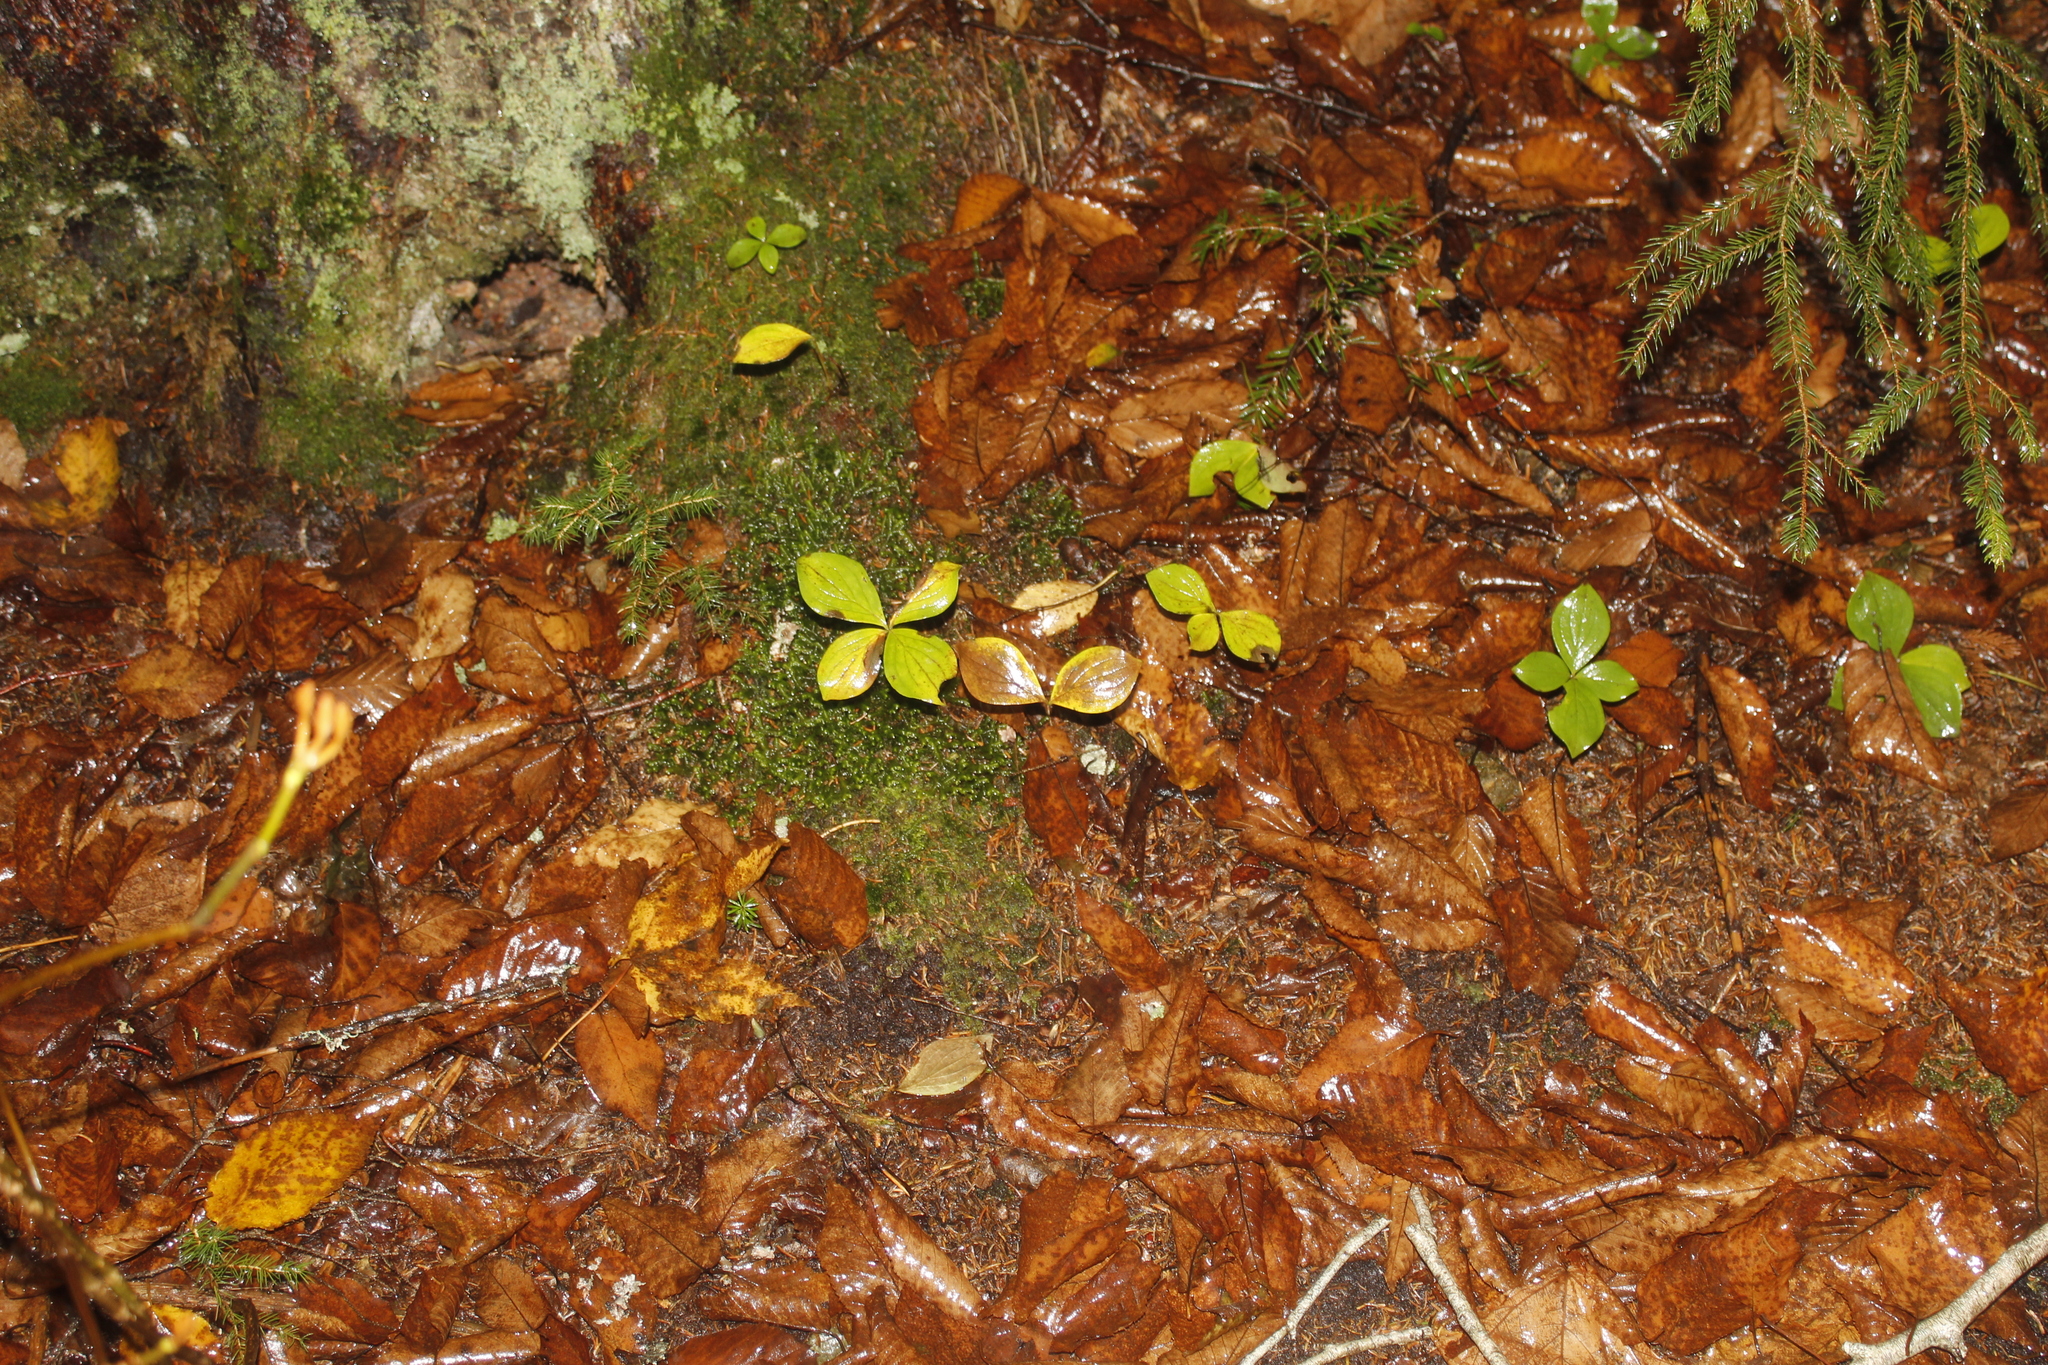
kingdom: Plantae
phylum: Tracheophyta
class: Magnoliopsida
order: Cornales
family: Cornaceae
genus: Cornus
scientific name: Cornus canadensis
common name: Creeping dogwood
